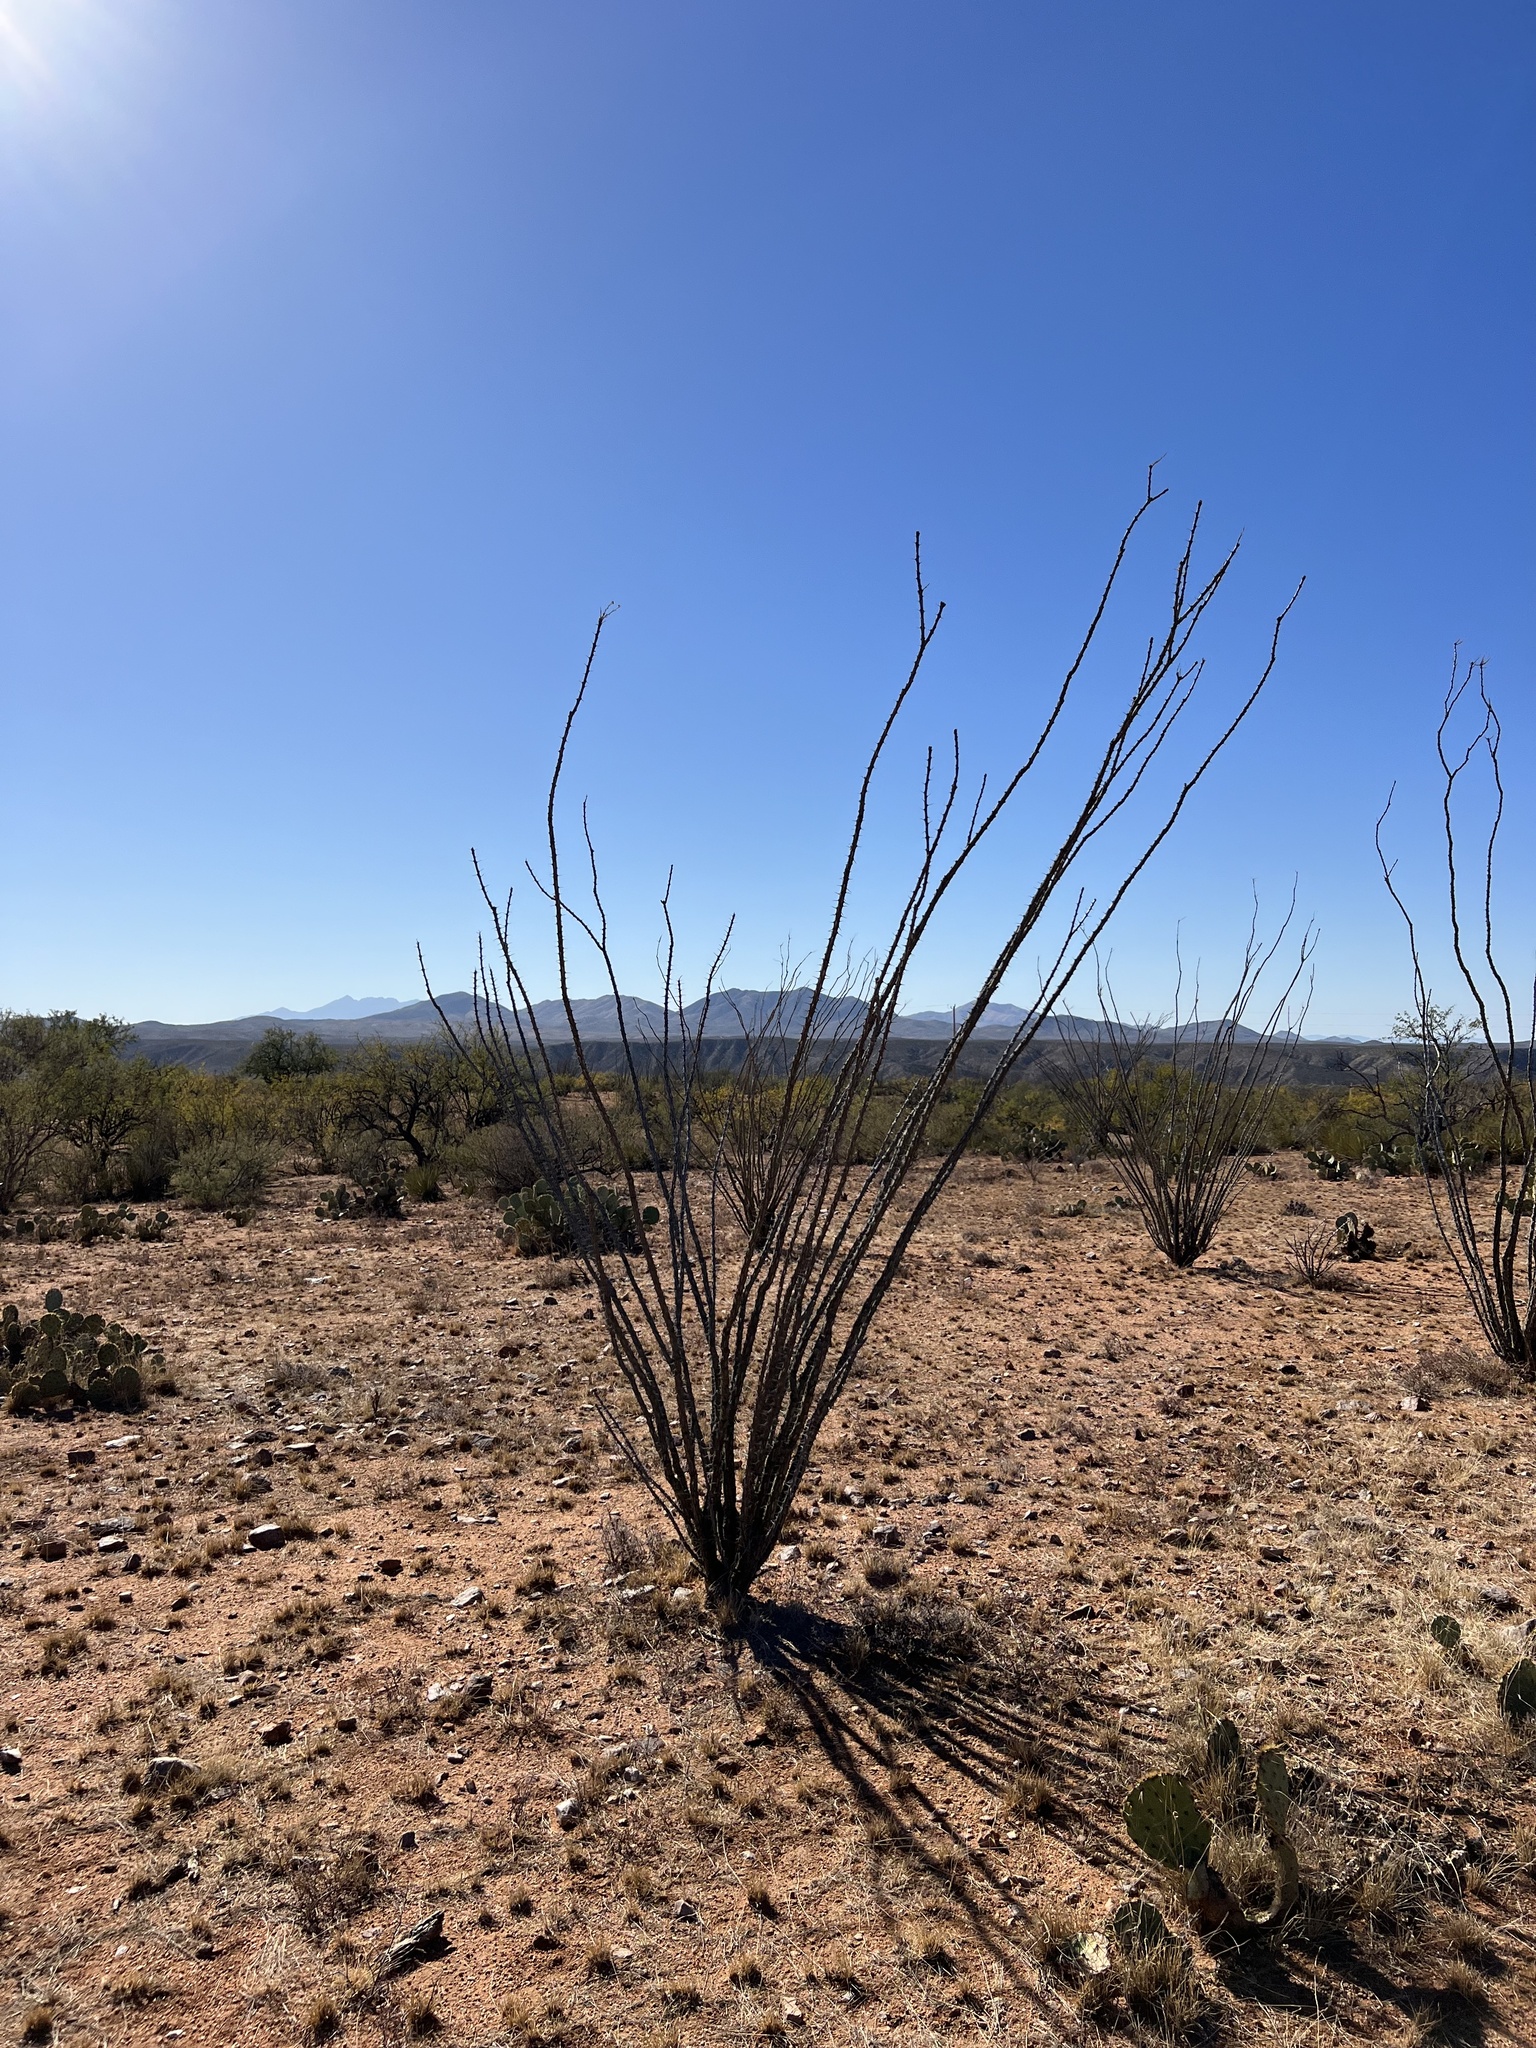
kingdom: Plantae
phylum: Tracheophyta
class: Magnoliopsida
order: Ericales
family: Fouquieriaceae
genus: Fouquieria
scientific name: Fouquieria splendens
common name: Vine-cactus
